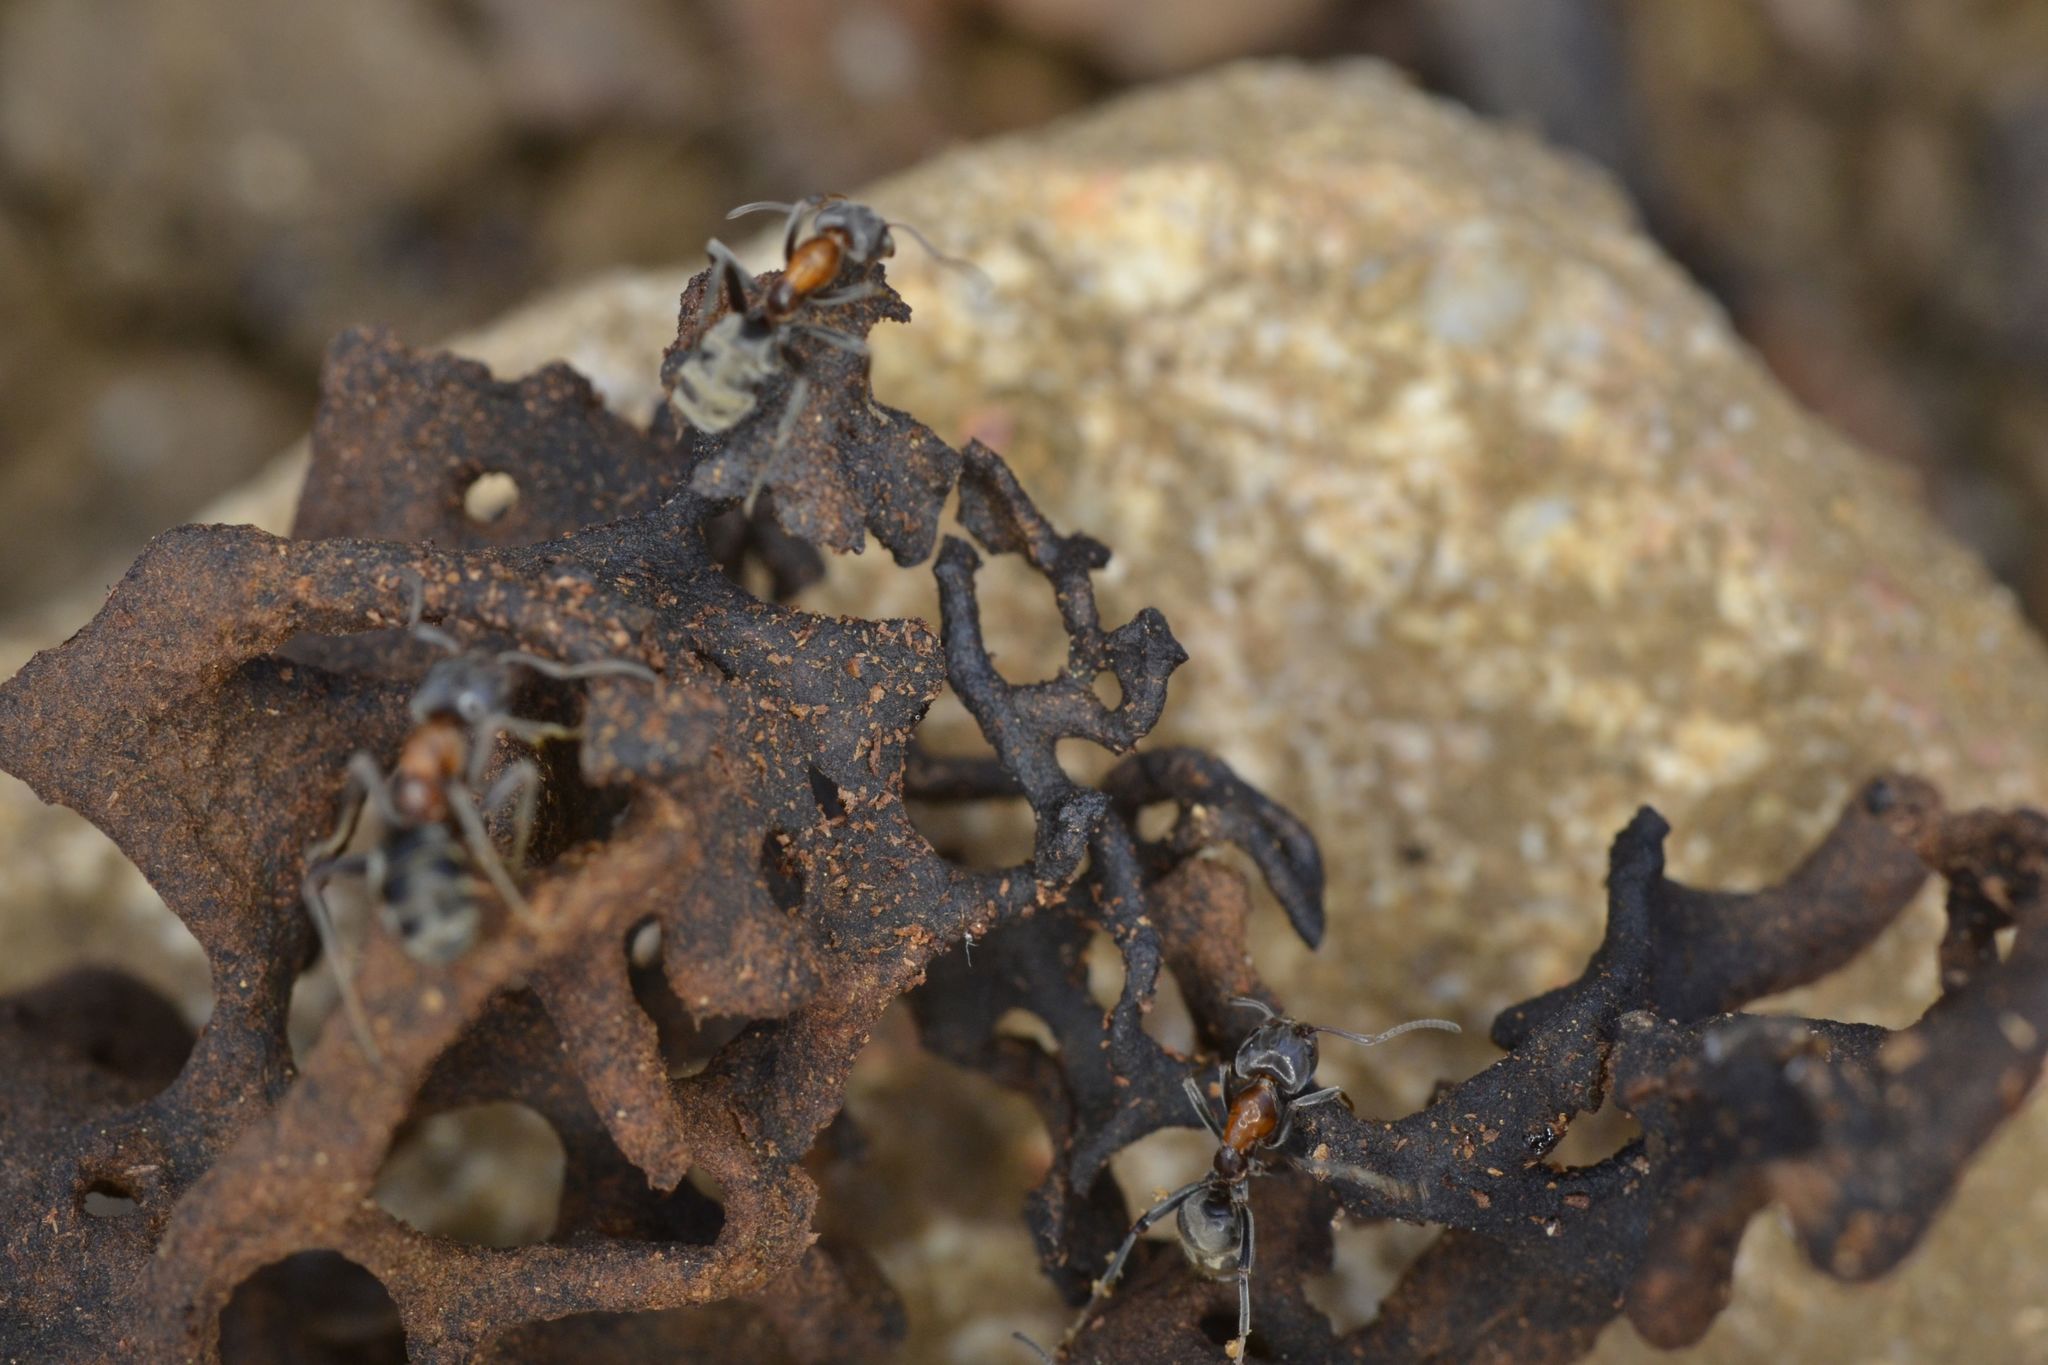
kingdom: Animalia
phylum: Arthropoda
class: Insecta
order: Hymenoptera
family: Formicidae
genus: Liometopum
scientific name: Liometopum microcephalum
